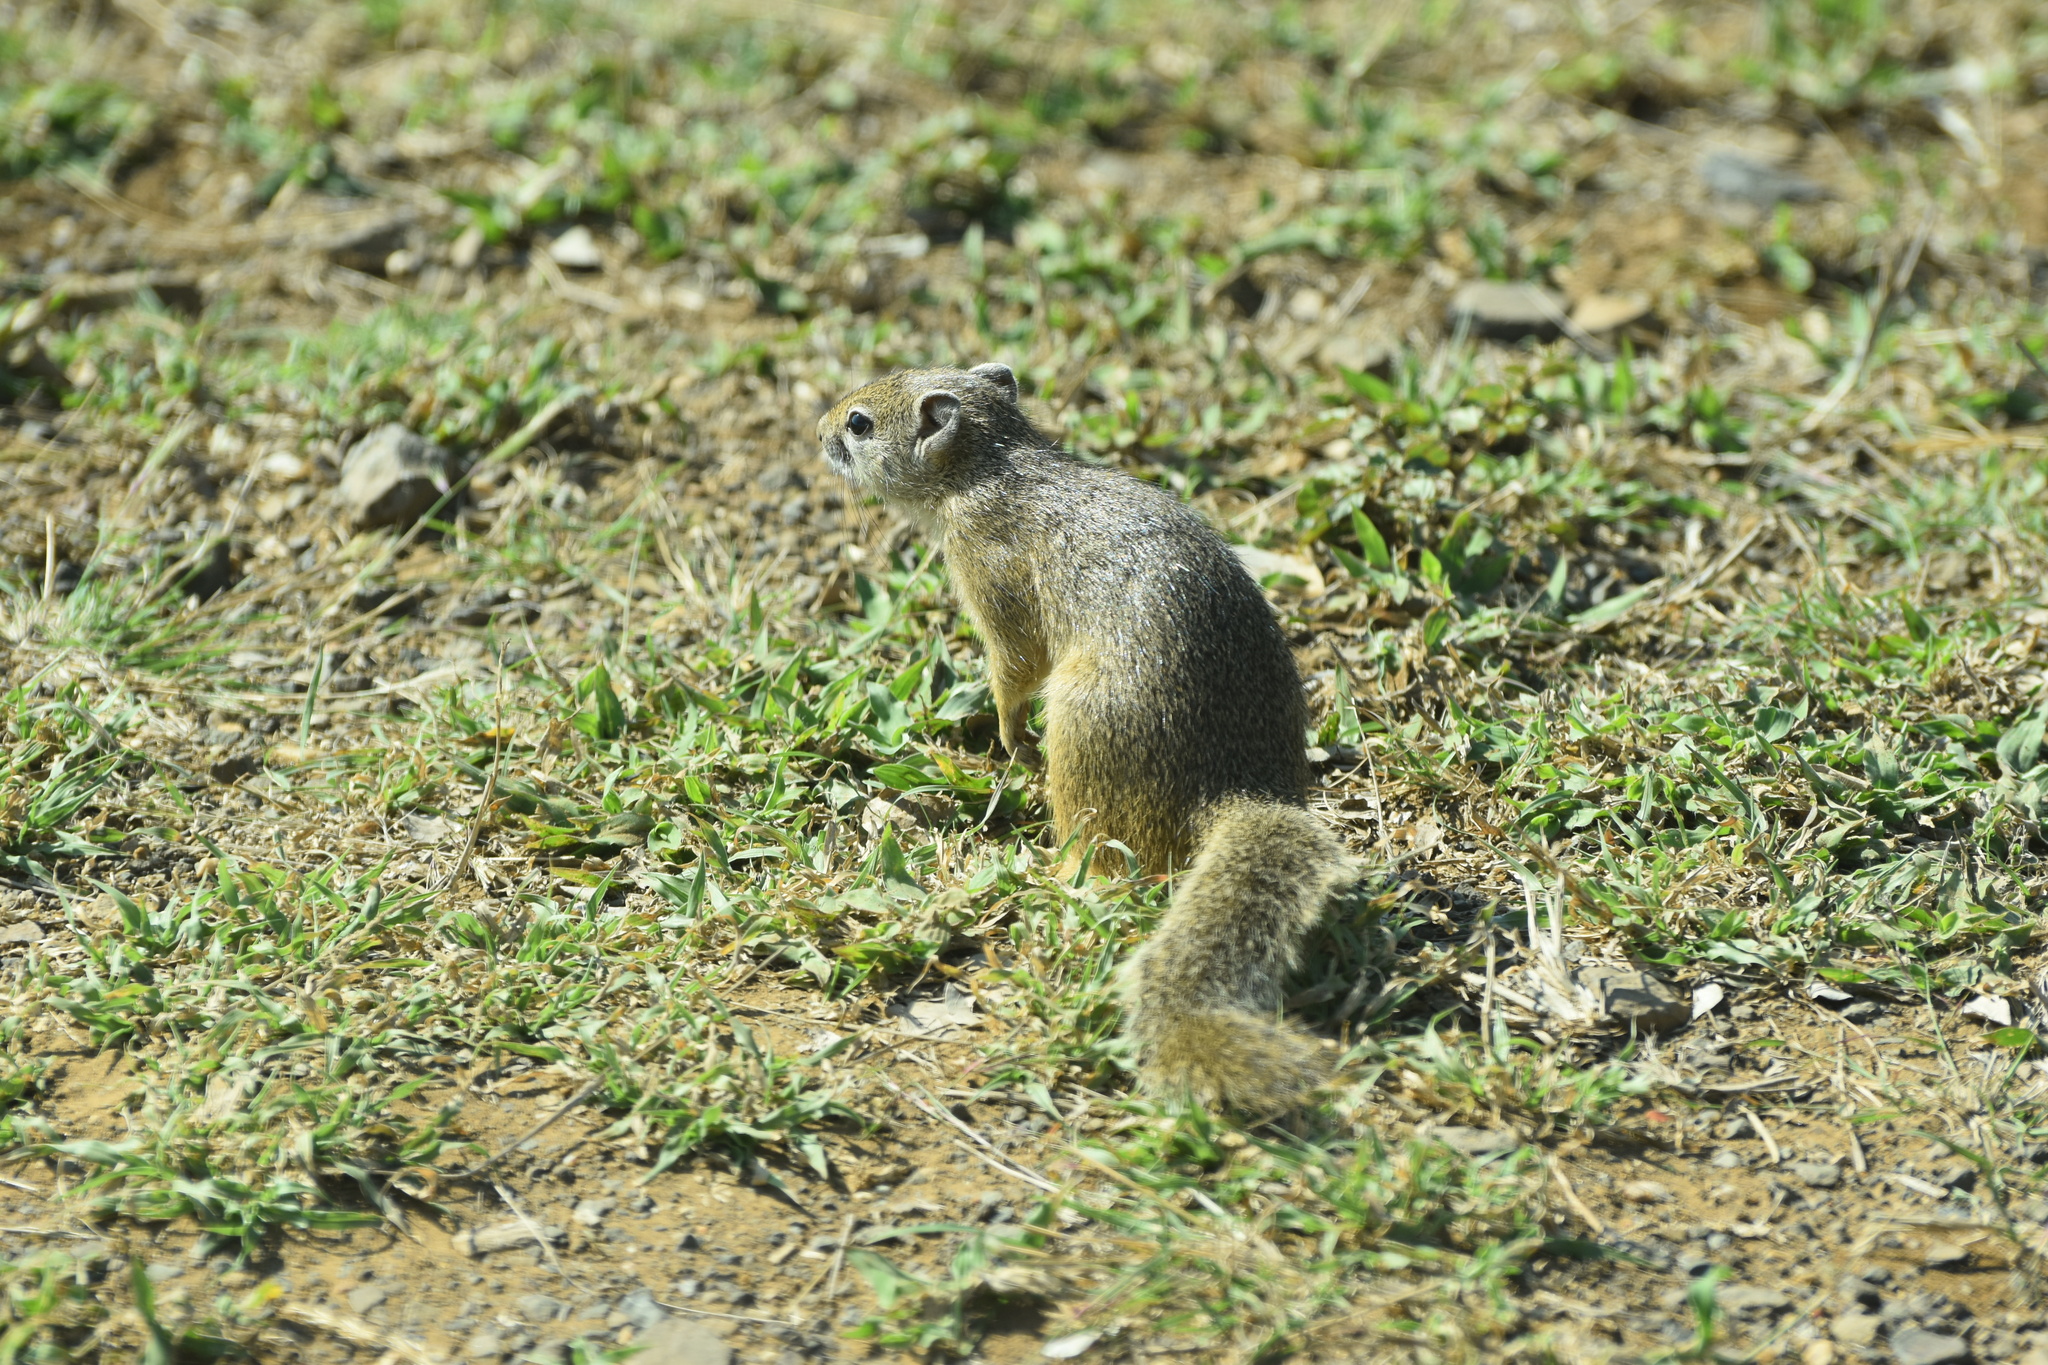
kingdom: Animalia
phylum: Chordata
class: Mammalia
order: Rodentia
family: Sciuridae
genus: Paraxerus
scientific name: Paraxerus cepapi
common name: Smith's bush squirrel
